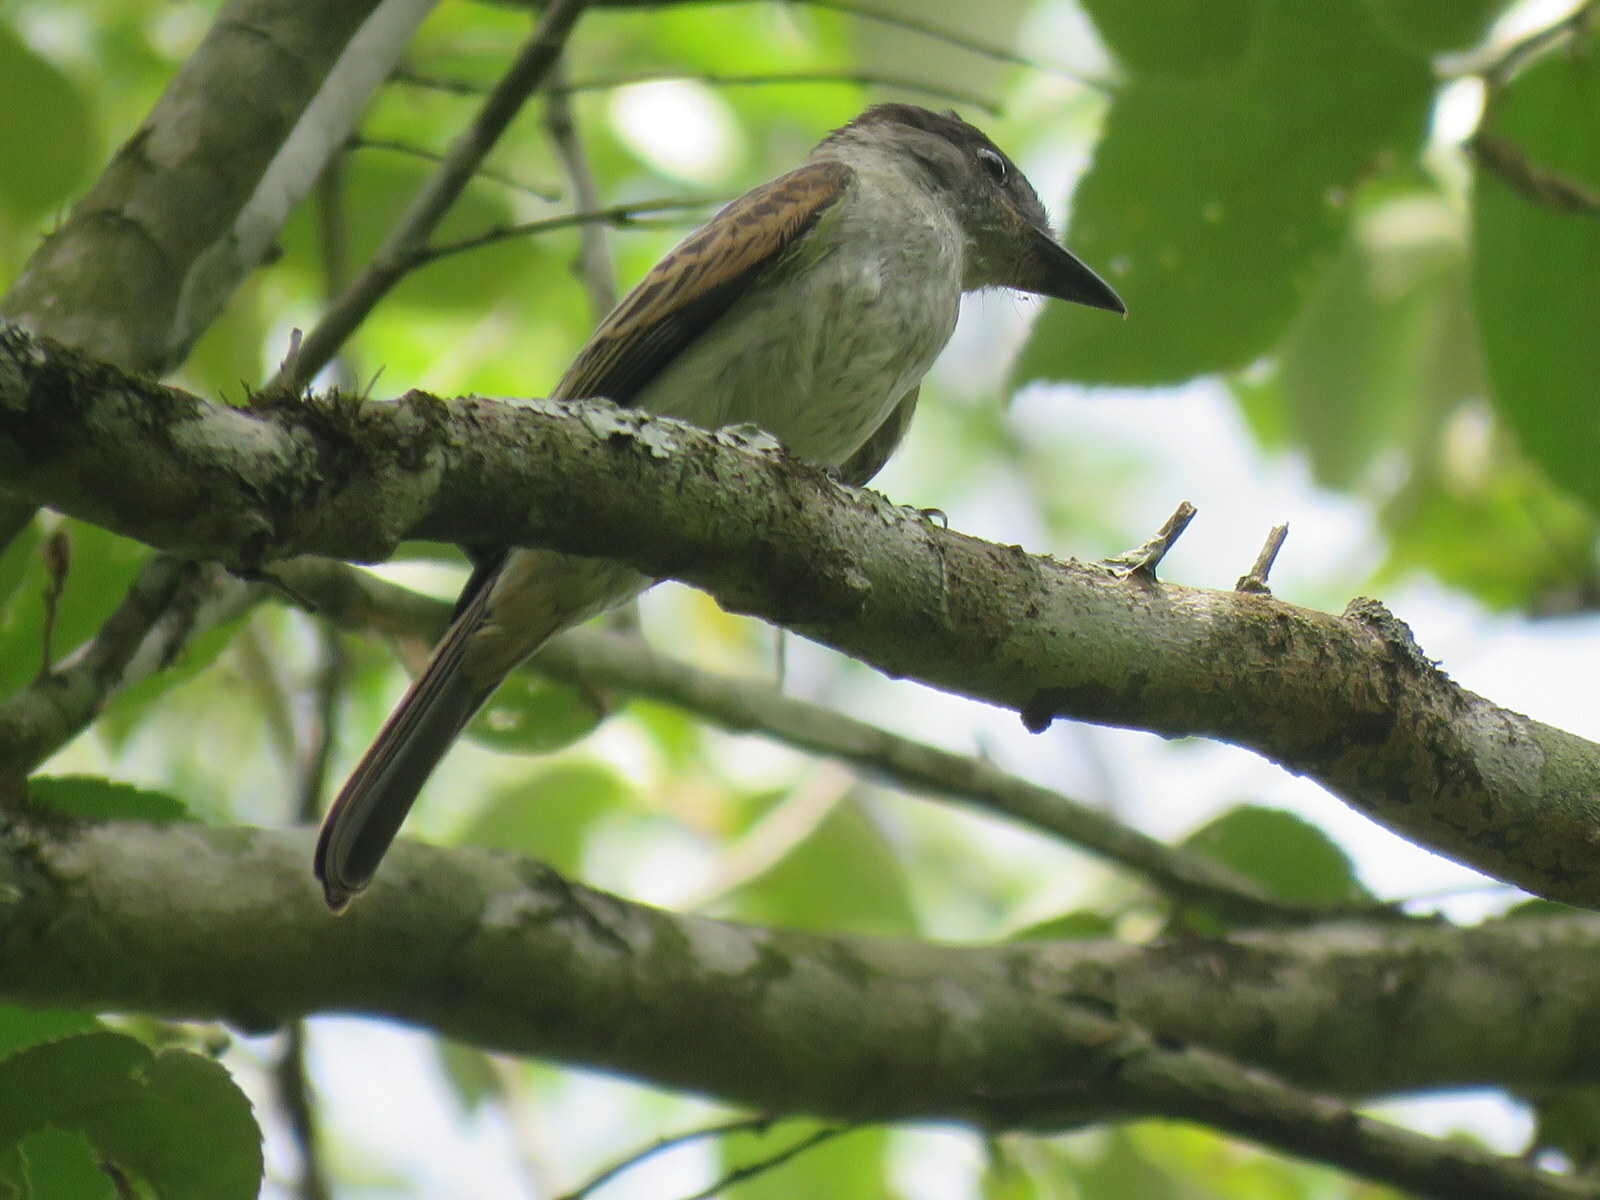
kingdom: Animalia
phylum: Chordata
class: Aves
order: Passeriformes
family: Cotingidae
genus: Pachyramphus
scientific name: Pachyramphus validus
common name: Crested becard
